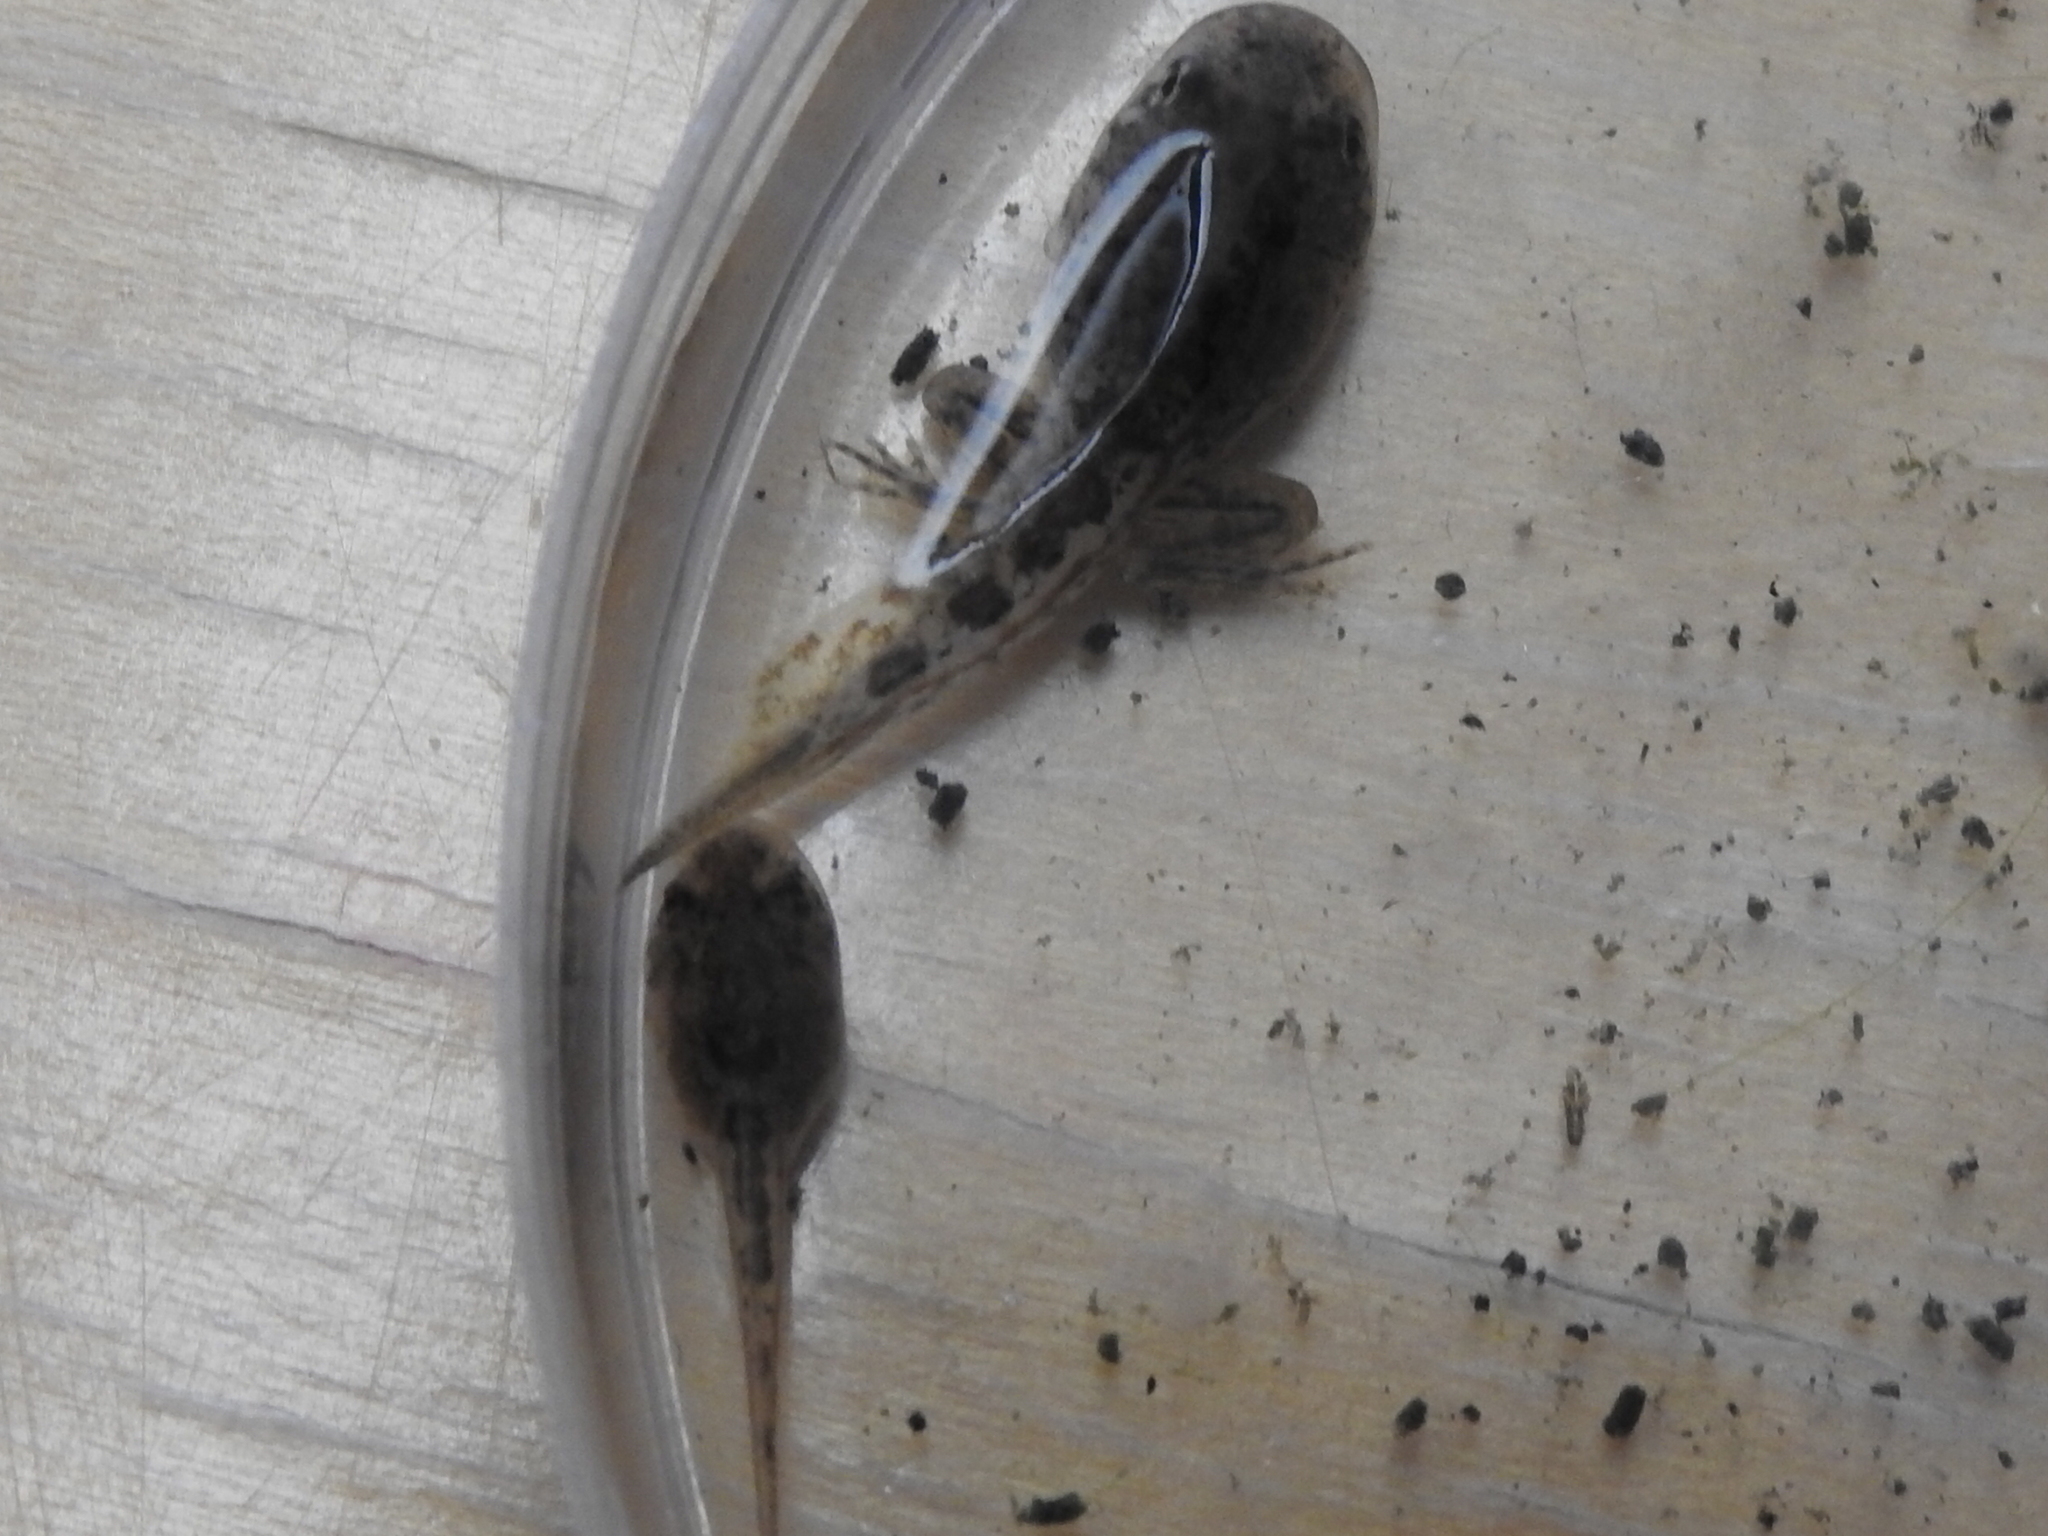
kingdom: Animalia
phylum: Chordata
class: Amphibia
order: Anura
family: Hylidae
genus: Acris
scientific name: Acris blanchardi
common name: Blanchard's cricket frog
